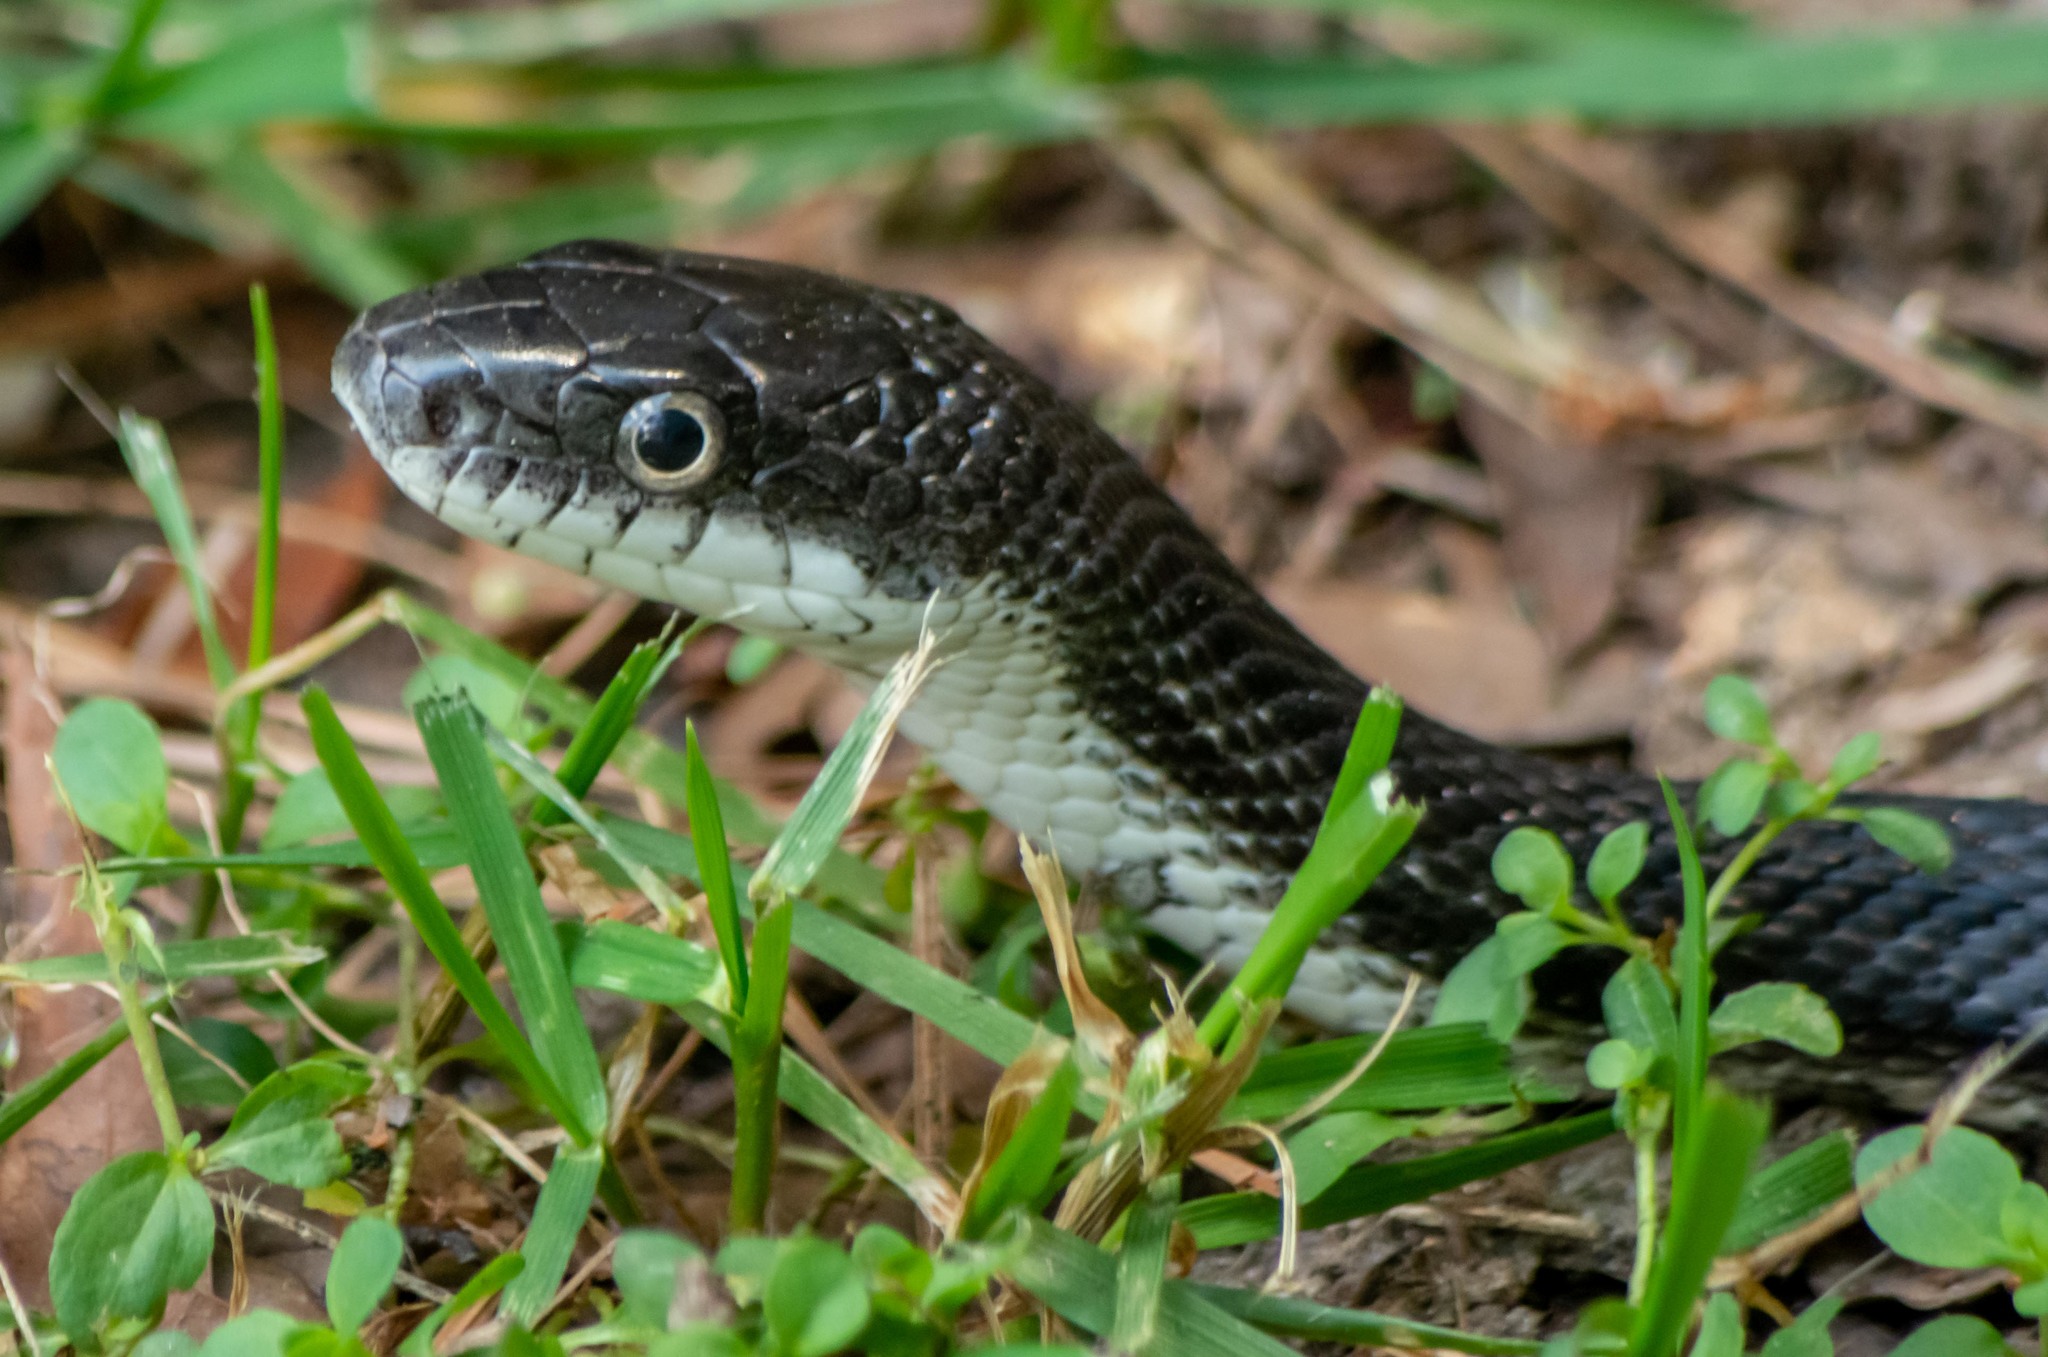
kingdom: Animalia
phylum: Chordata
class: Squamata
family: Colubridae
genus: Pantherophis
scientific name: Pantherophis alleghaniensis
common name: Eastern rat snake
